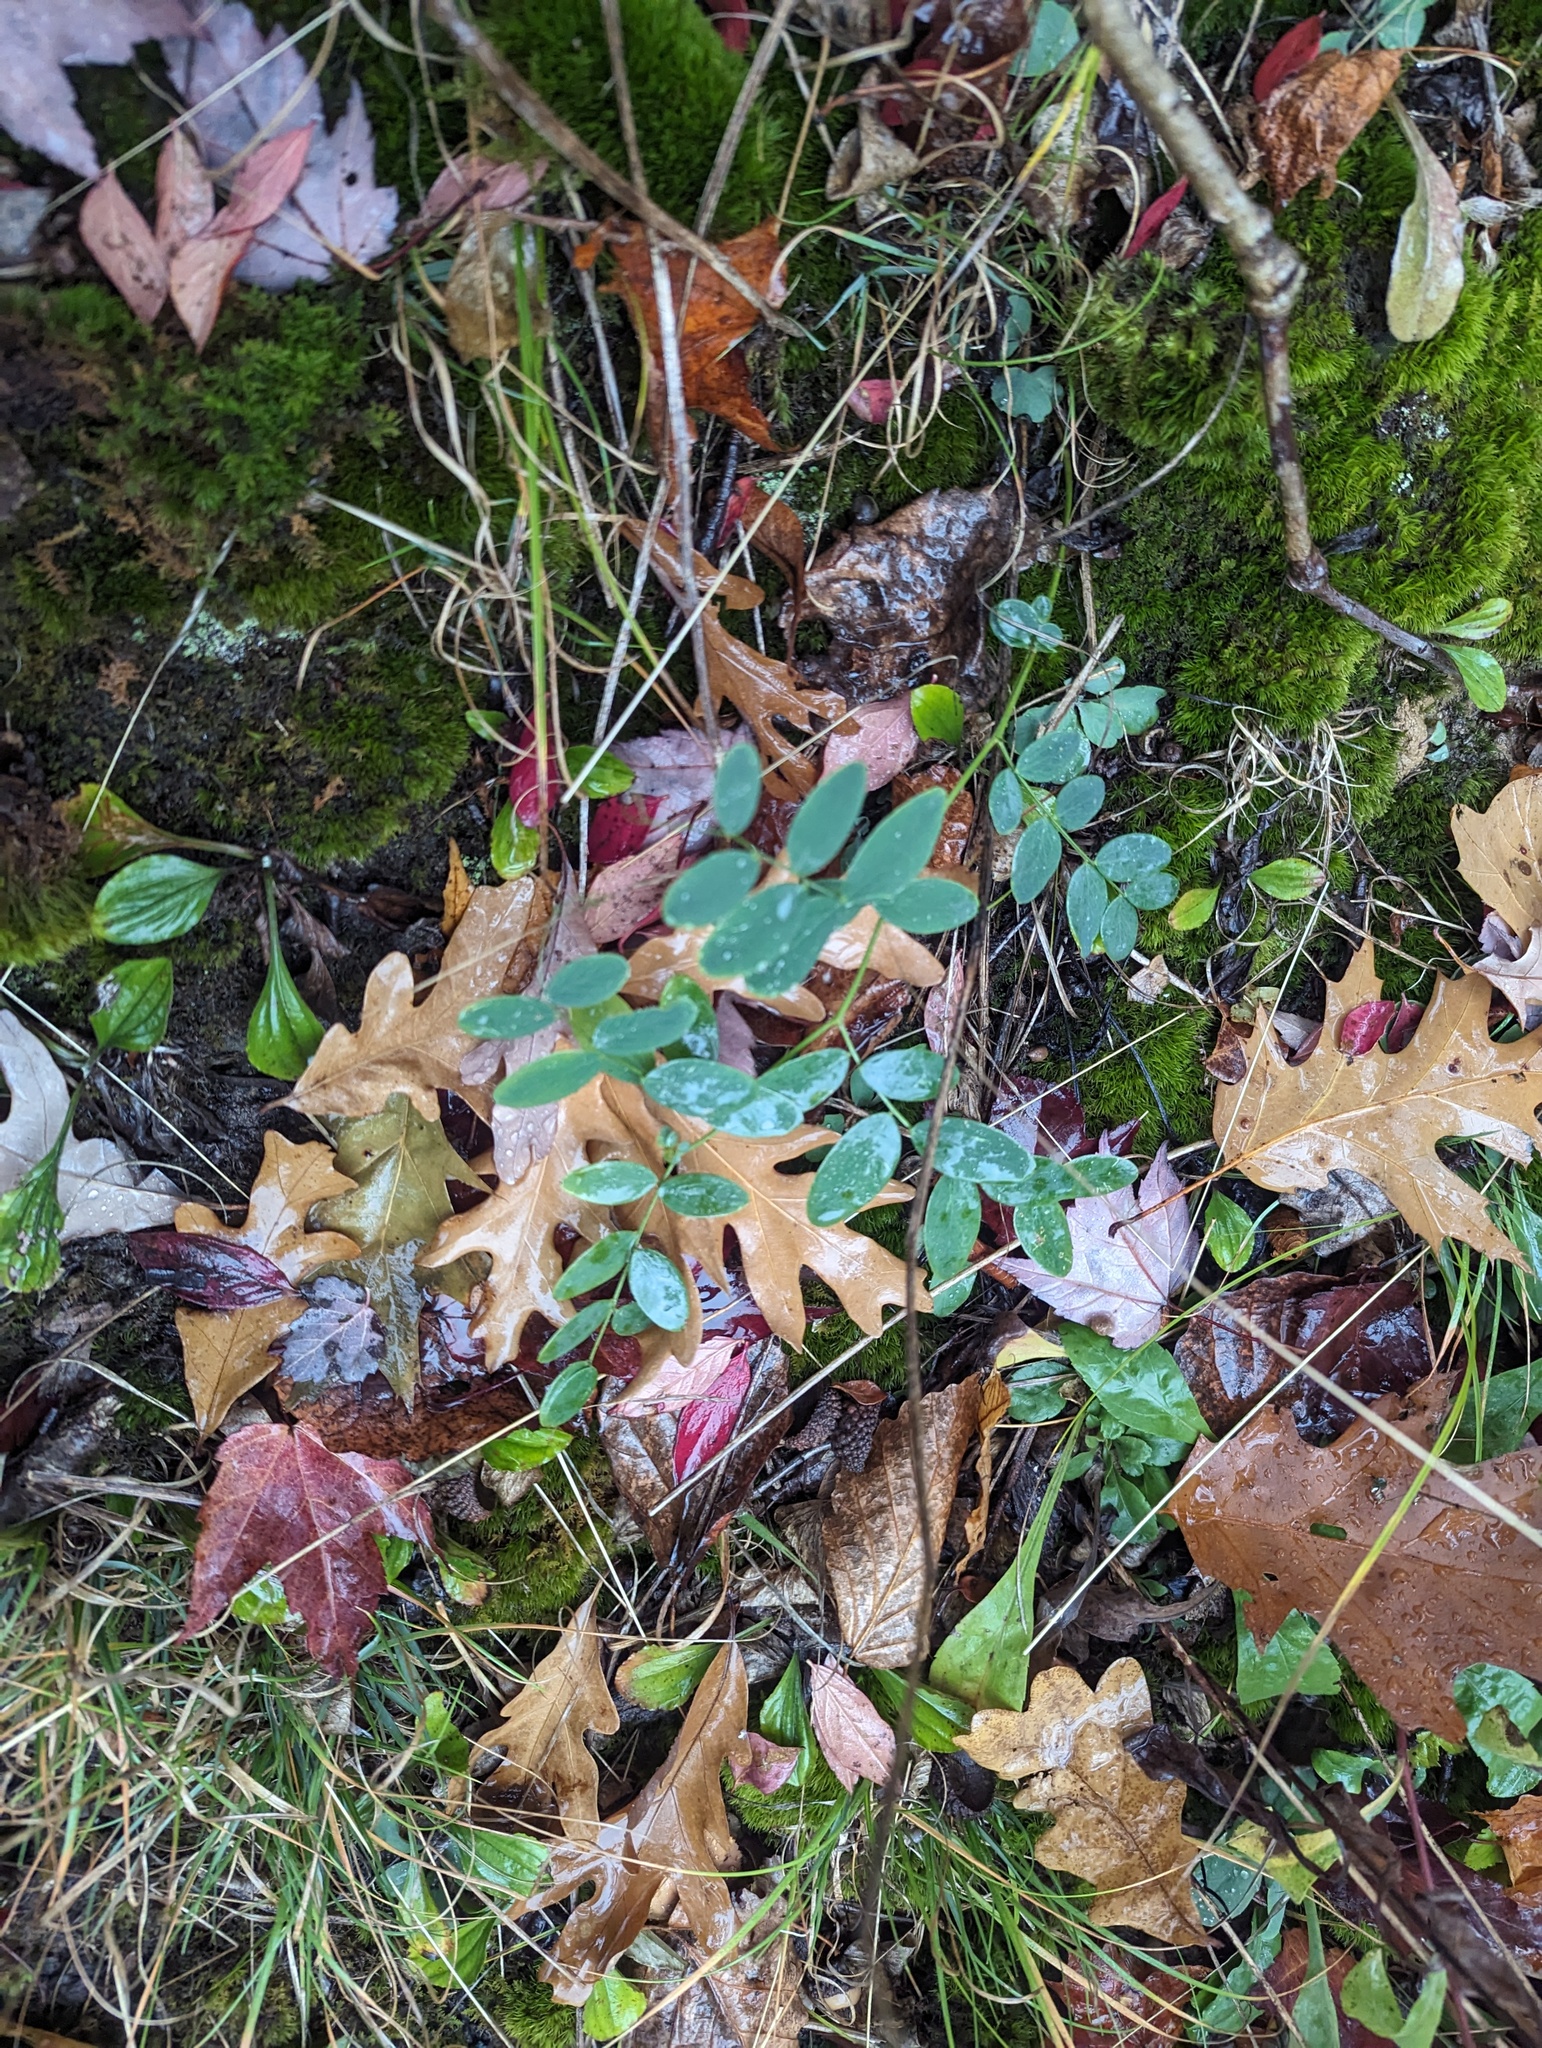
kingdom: Plantae
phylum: Tracheophyta
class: Magnoliopsida
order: Fabales
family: Fabaceae
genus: Lathyrus
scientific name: Lathyrus ochroleucus
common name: Pale vetchling
